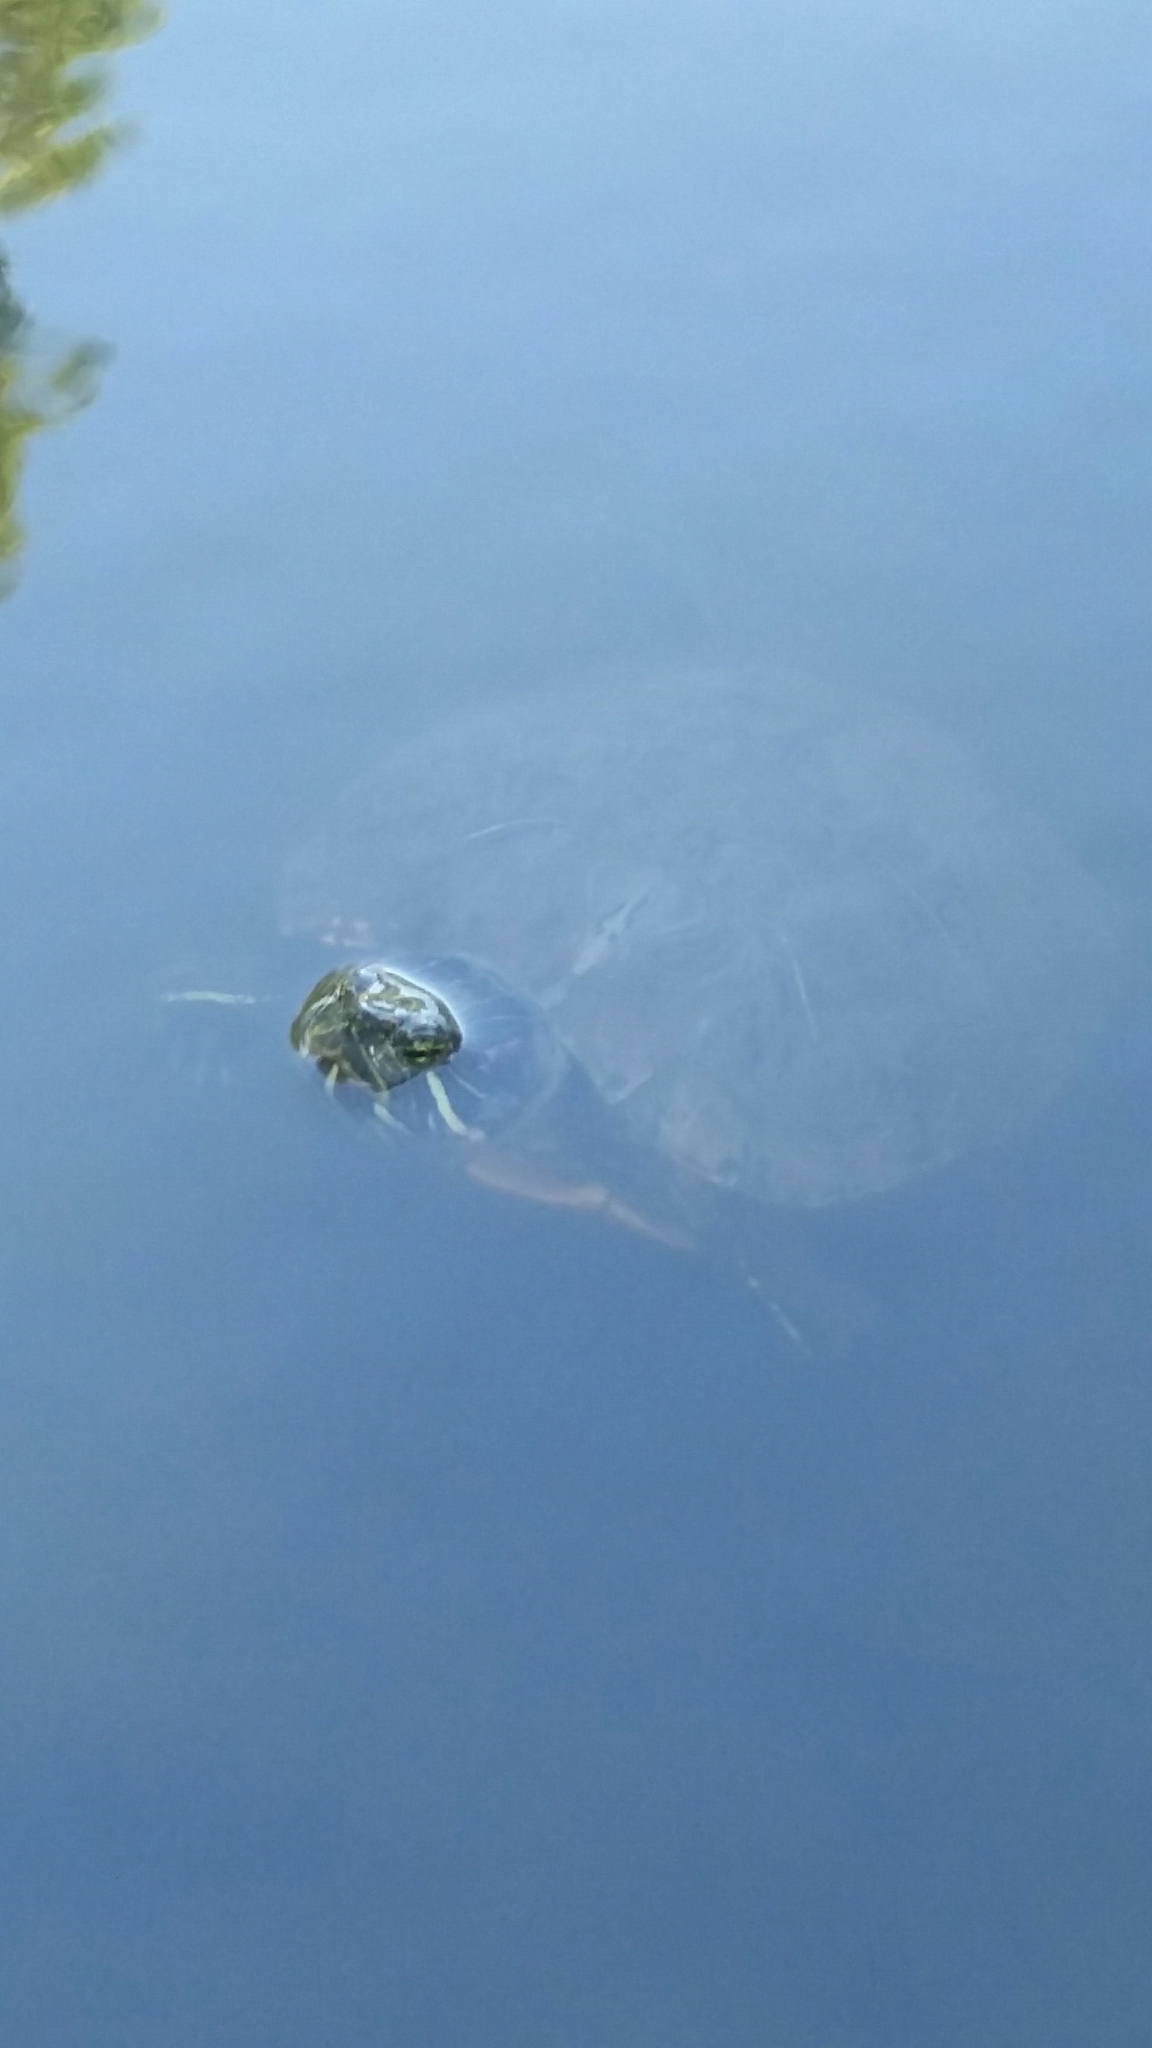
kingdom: Animalia
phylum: Chordata
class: Testudines
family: Emydidae
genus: Trachemys
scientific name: Trachemys scripta
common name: Slider
